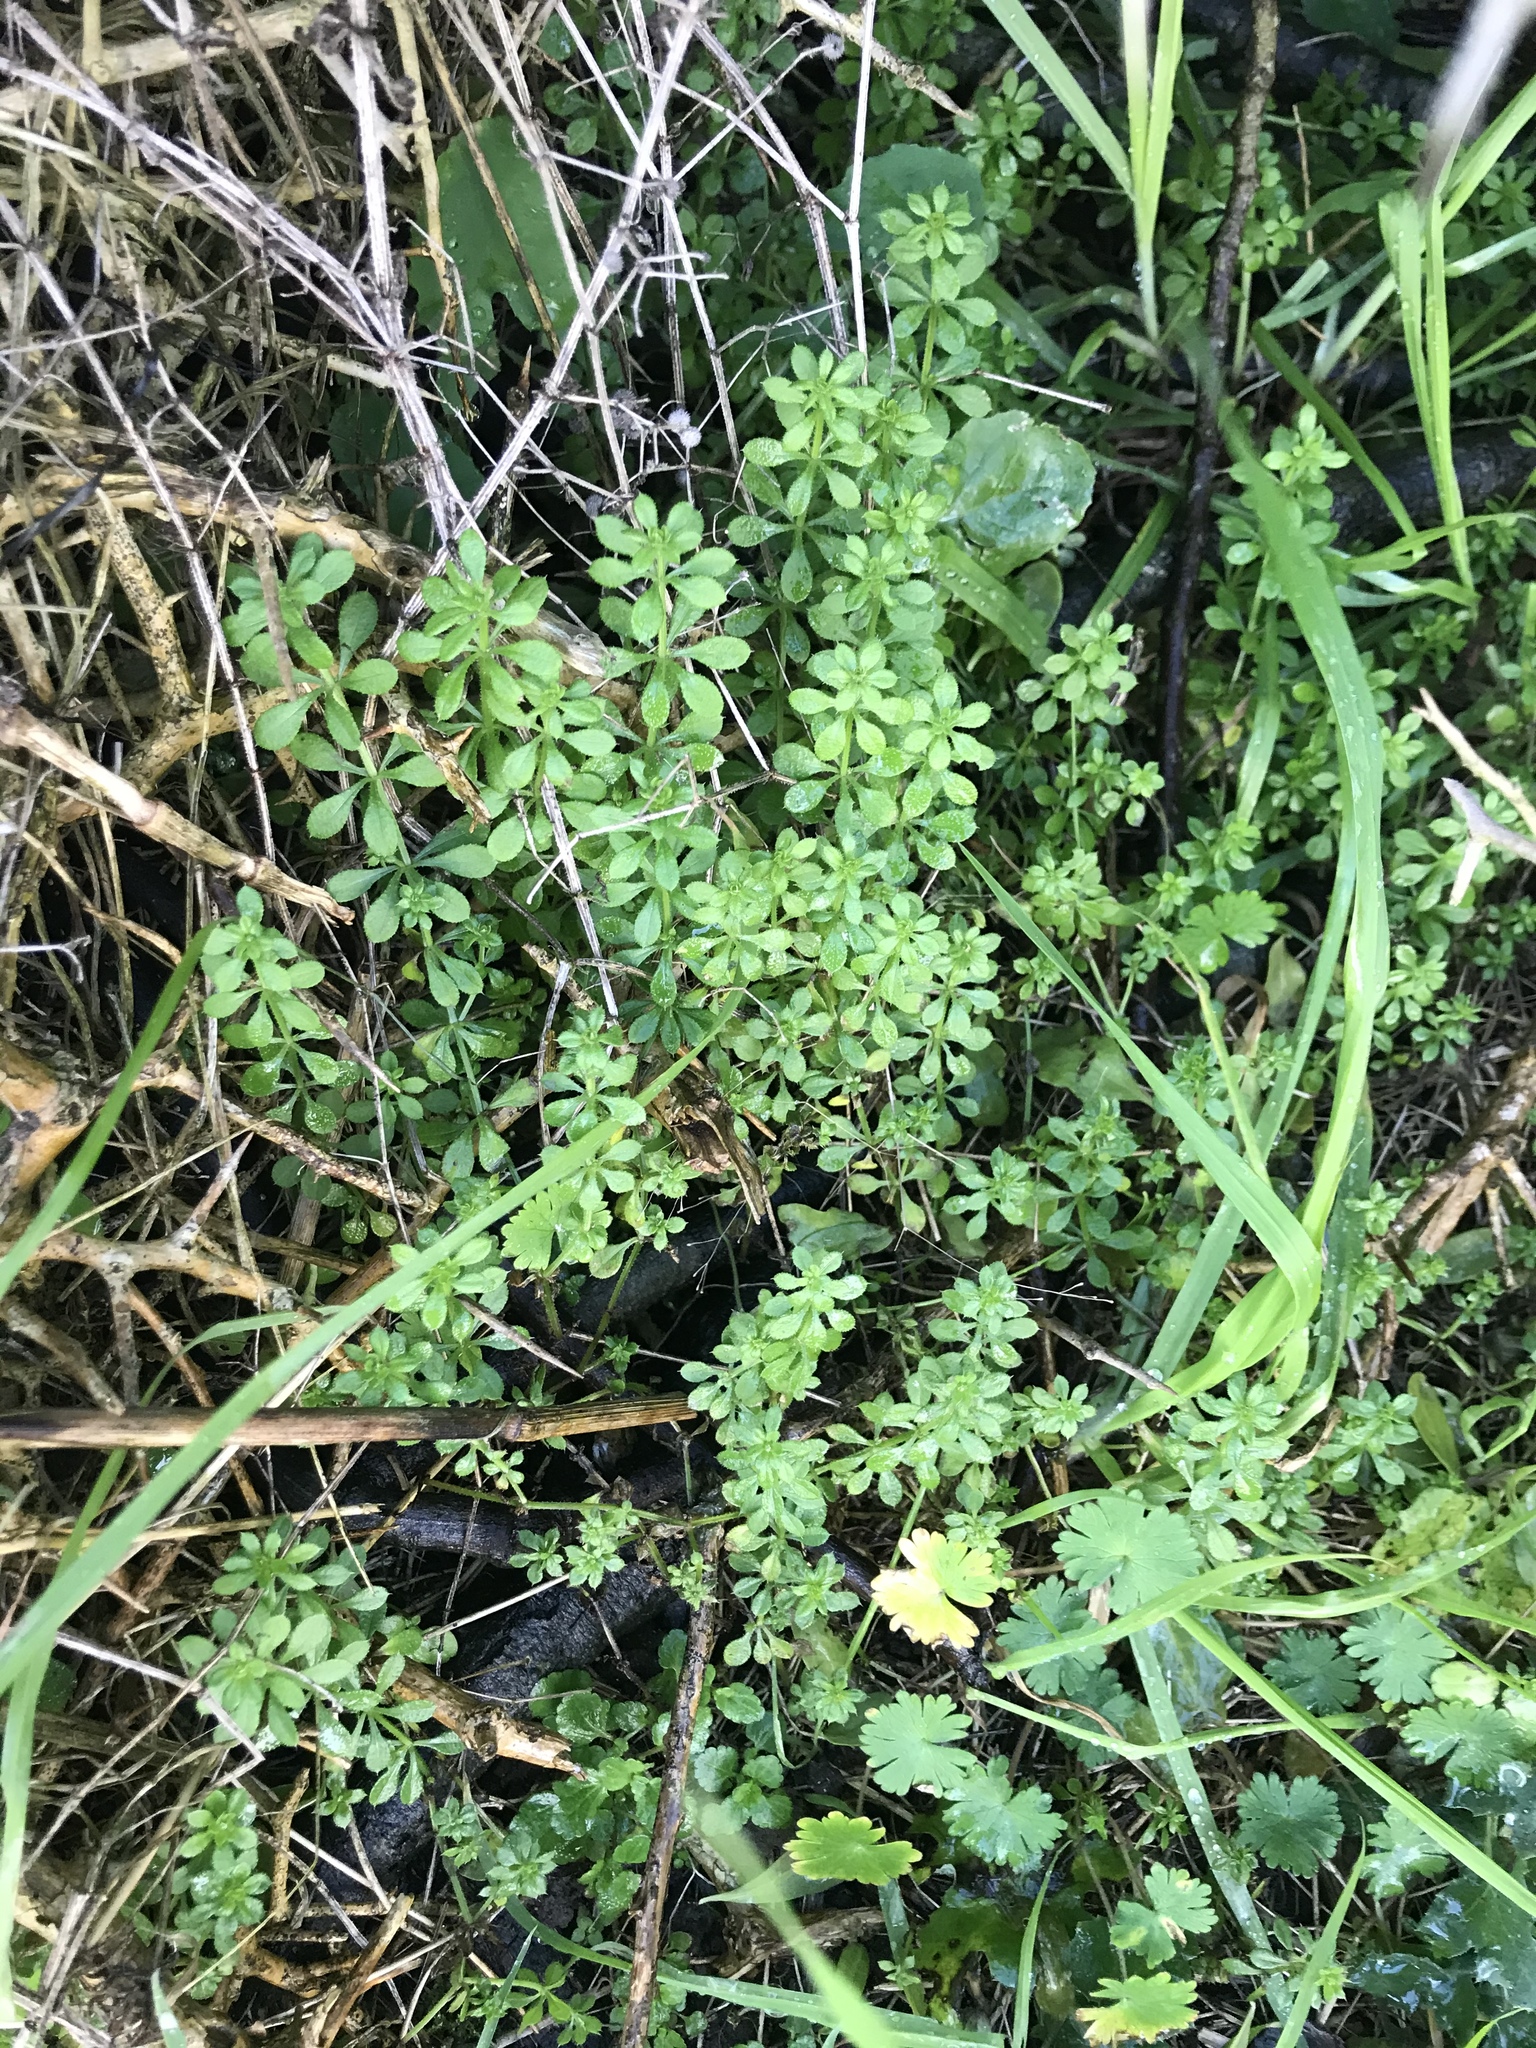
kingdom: Plantae
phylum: Tracheophyta
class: Magnoliopsida
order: Gentianales
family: Rubiaceae
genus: Galium
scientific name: Galium aparine
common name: Cleavers
